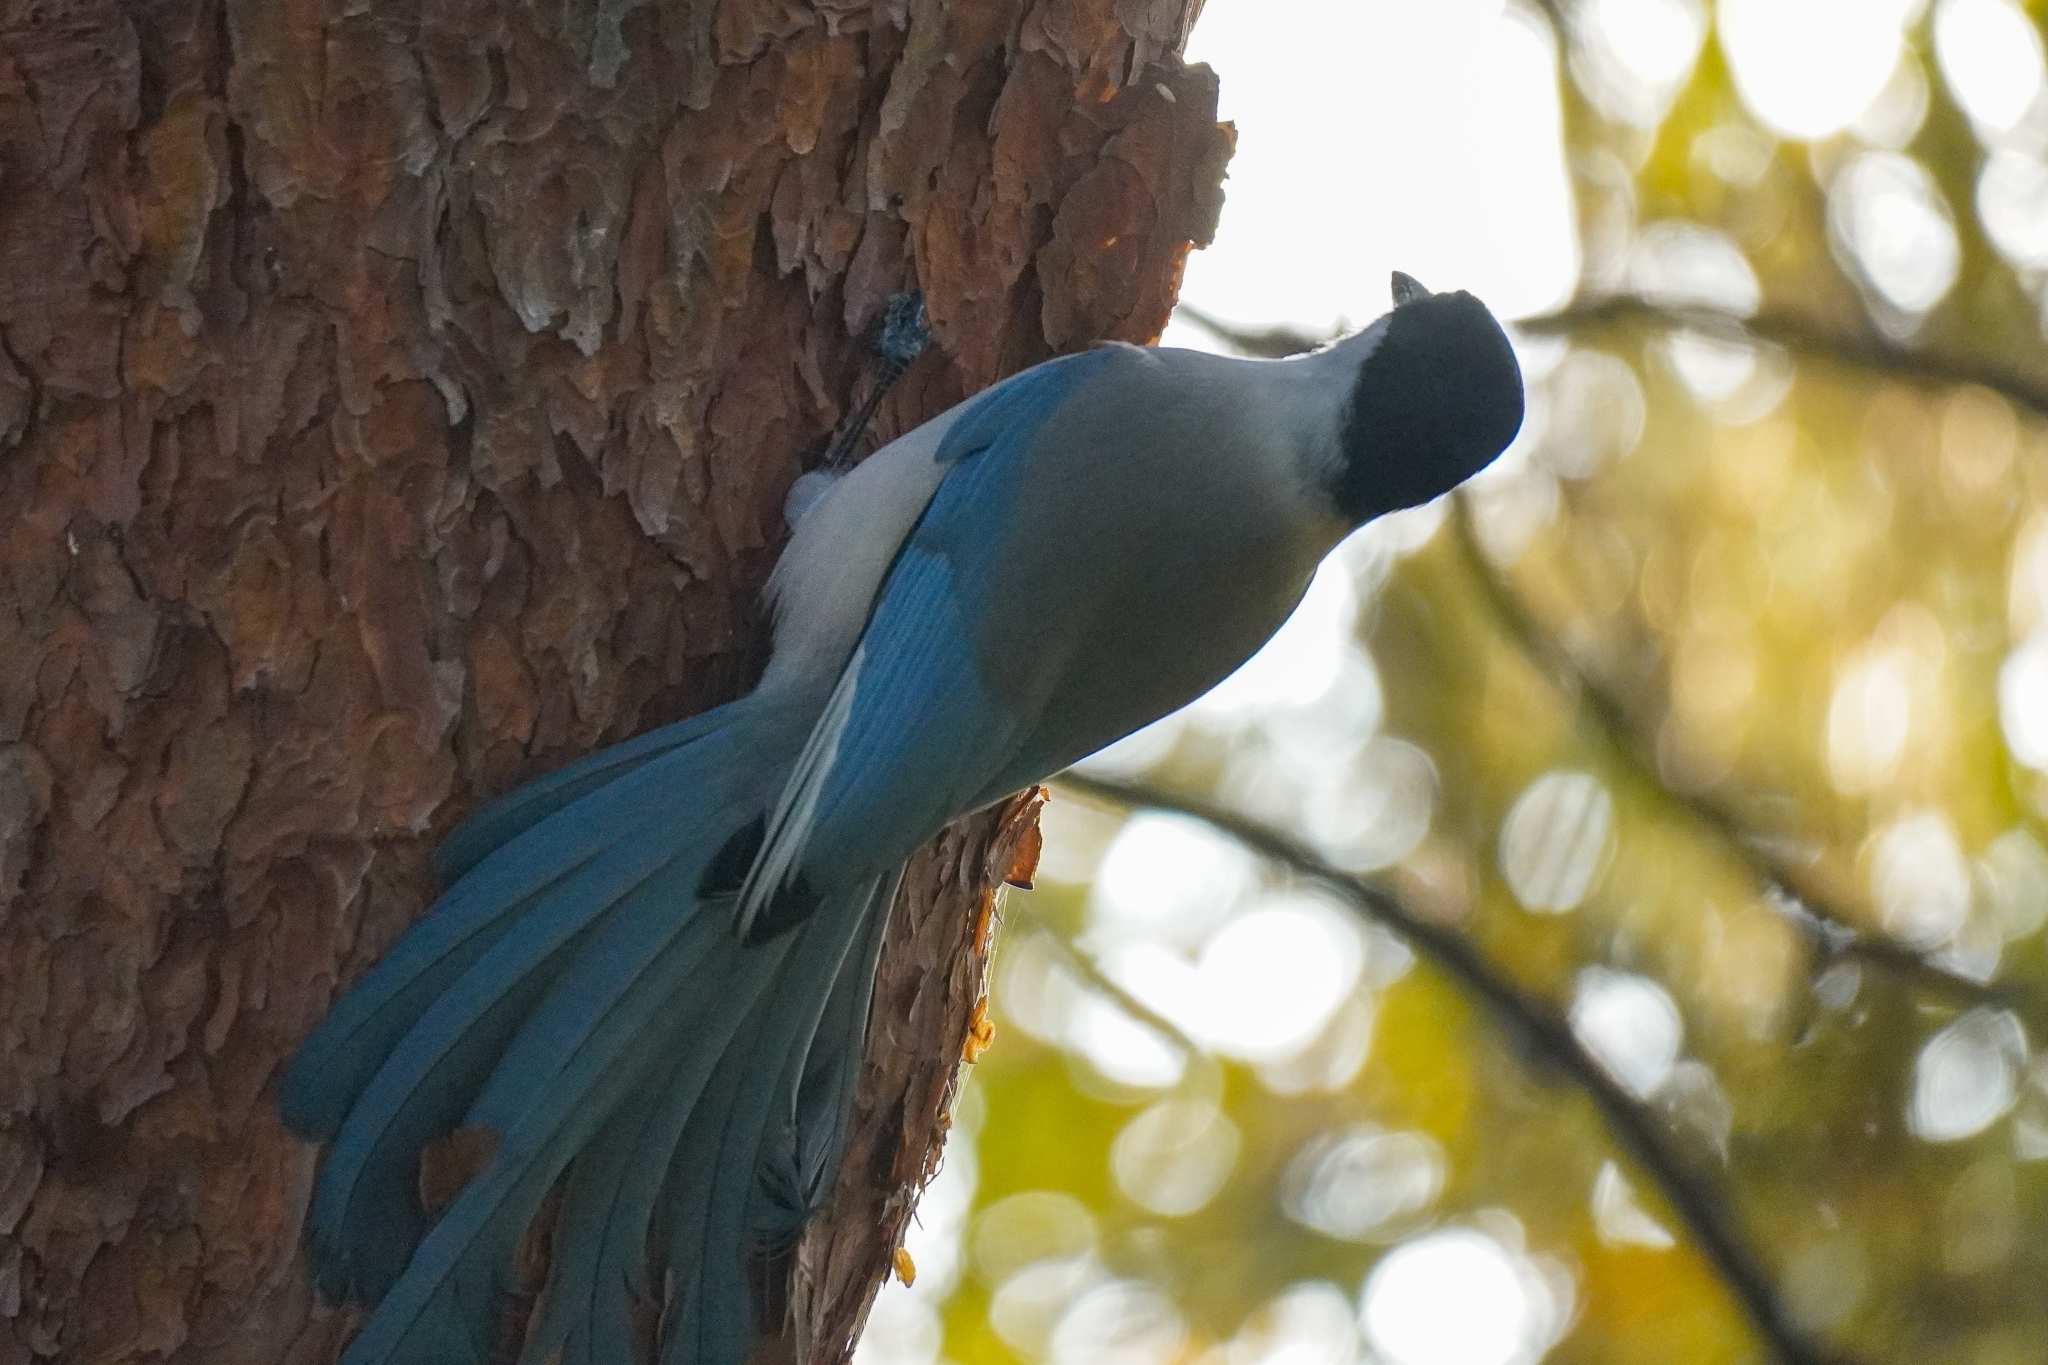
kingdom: Animalia
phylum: Chordata
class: Aves
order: Passeriformes
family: Corvidae
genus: Cyanopica
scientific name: Cyanopica cyanus
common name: Azure-winged magpie
